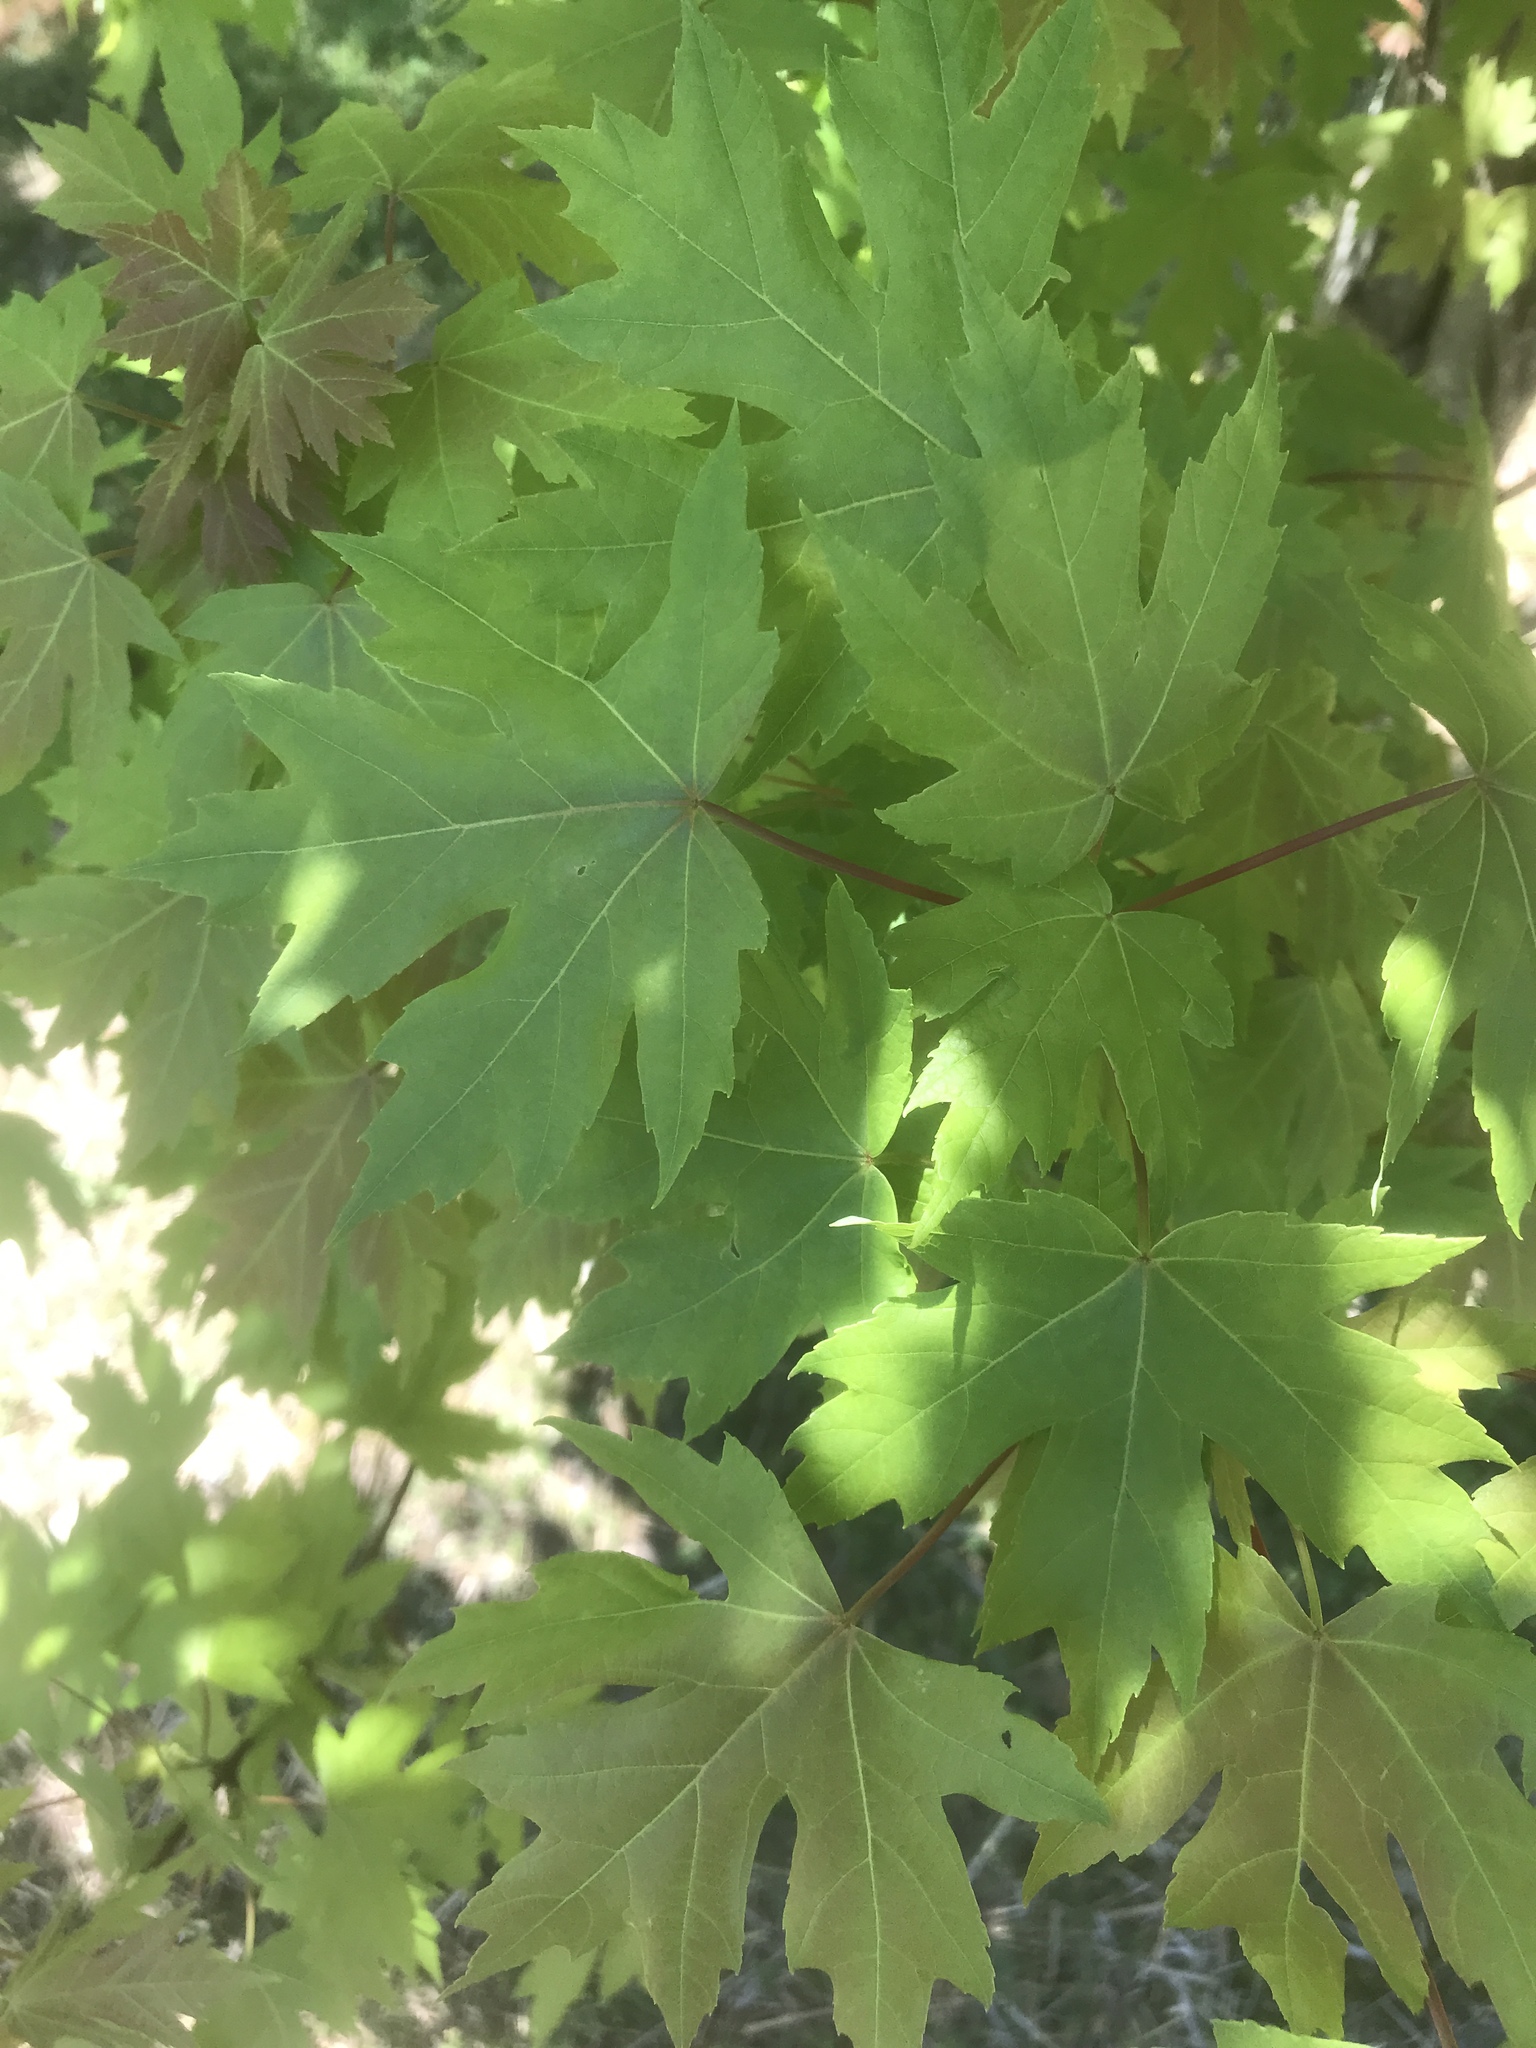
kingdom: Plantae
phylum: Tracheophyta
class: Magnoliopsida
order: Sapindales
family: Sapindaceae
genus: Acer
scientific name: Acer saccharinum
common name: Silver maple
